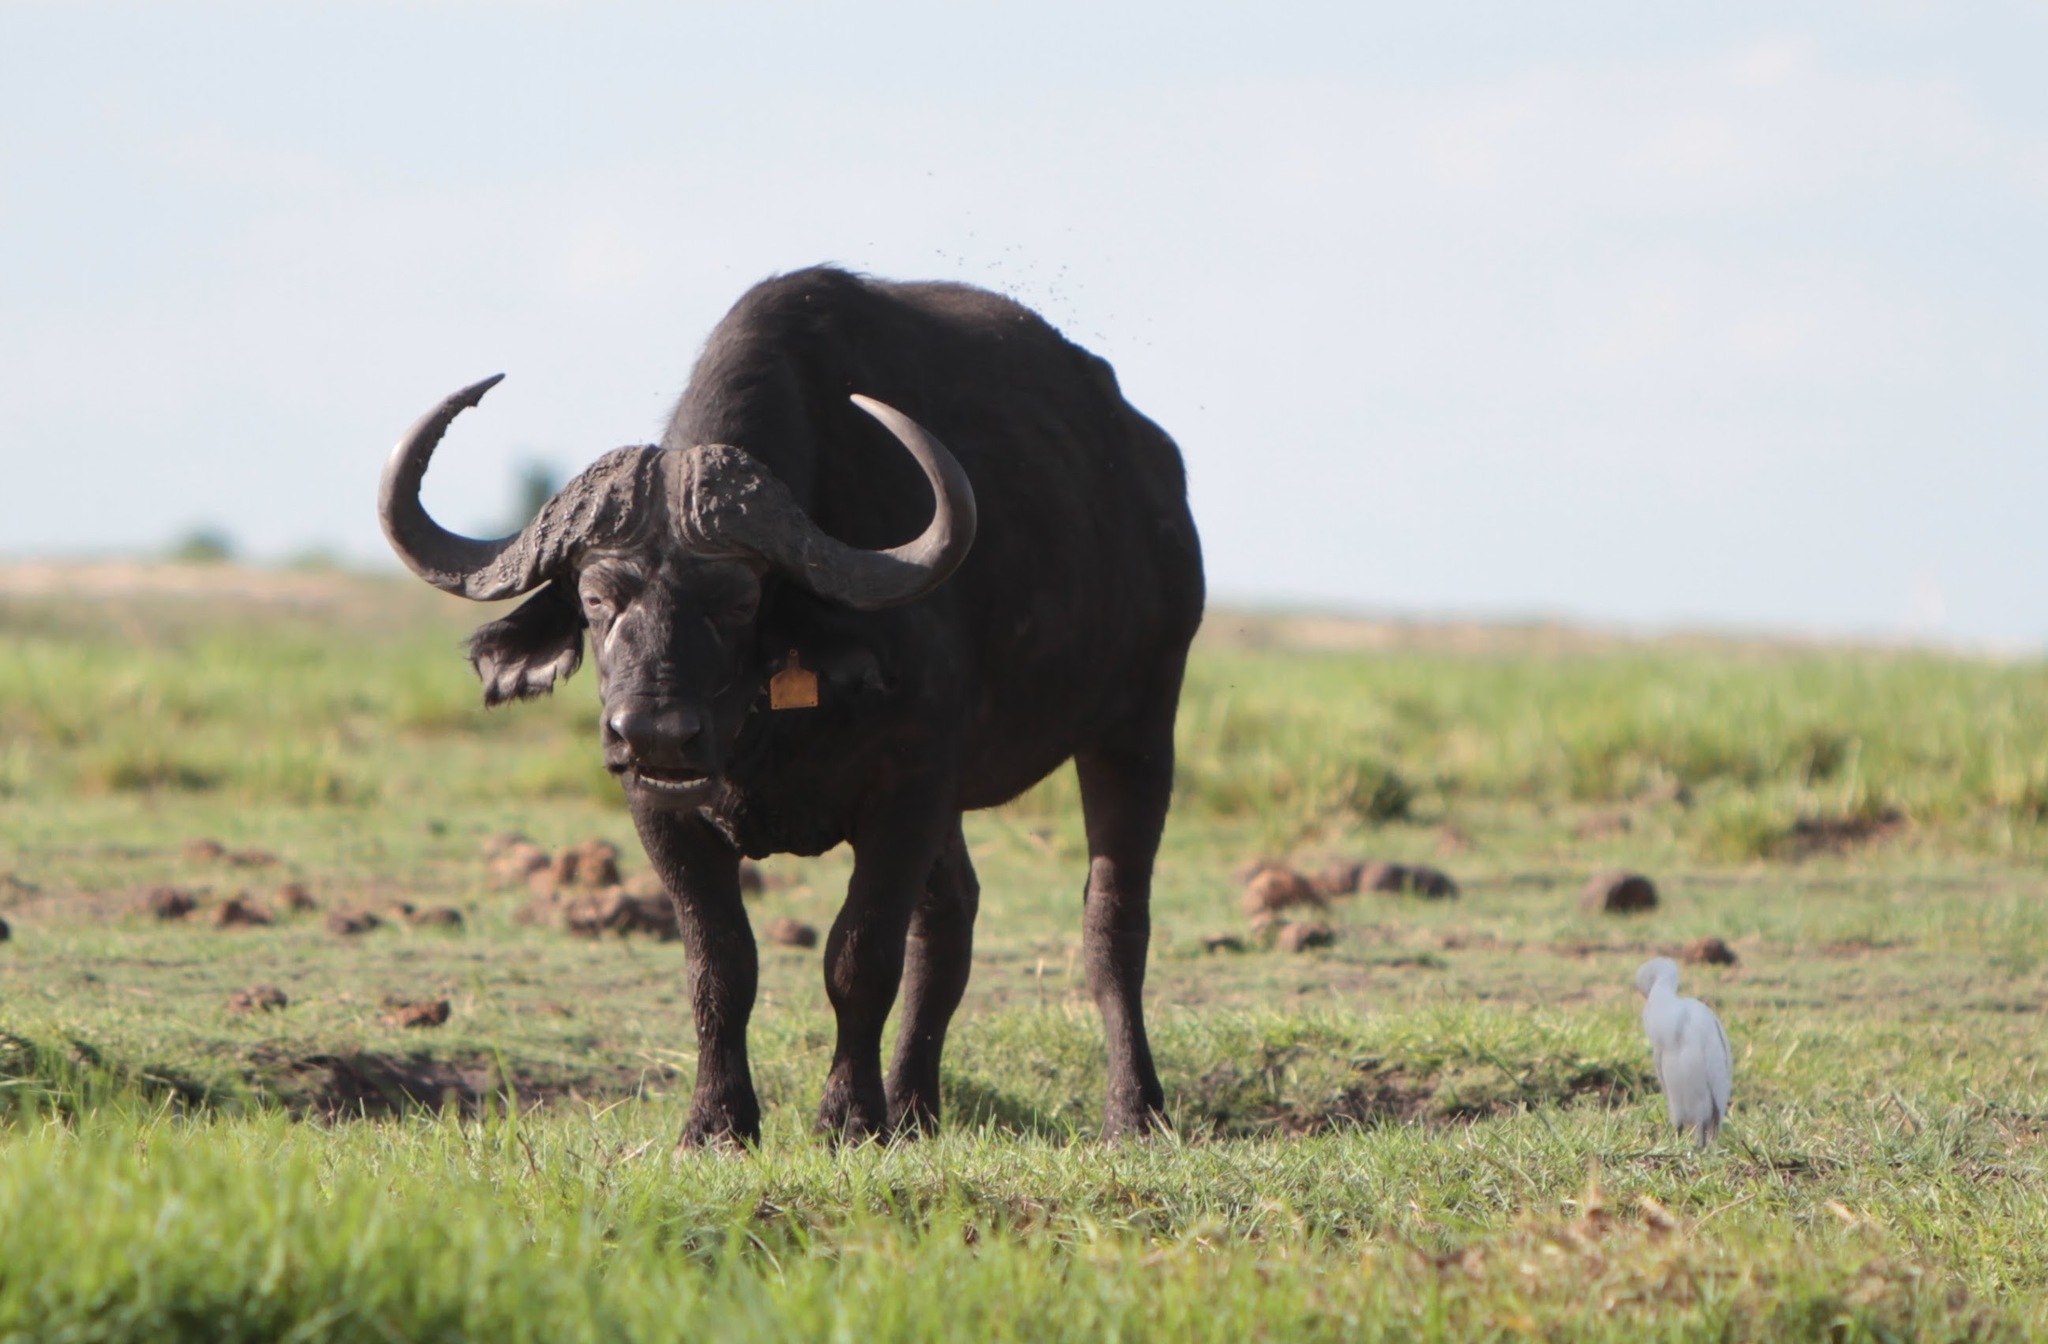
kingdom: Animalia
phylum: Chordata
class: Mammalia
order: Artiodactyla
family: Bovidae
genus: Syncerus
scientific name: Syncerus caffer
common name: African buffalo
